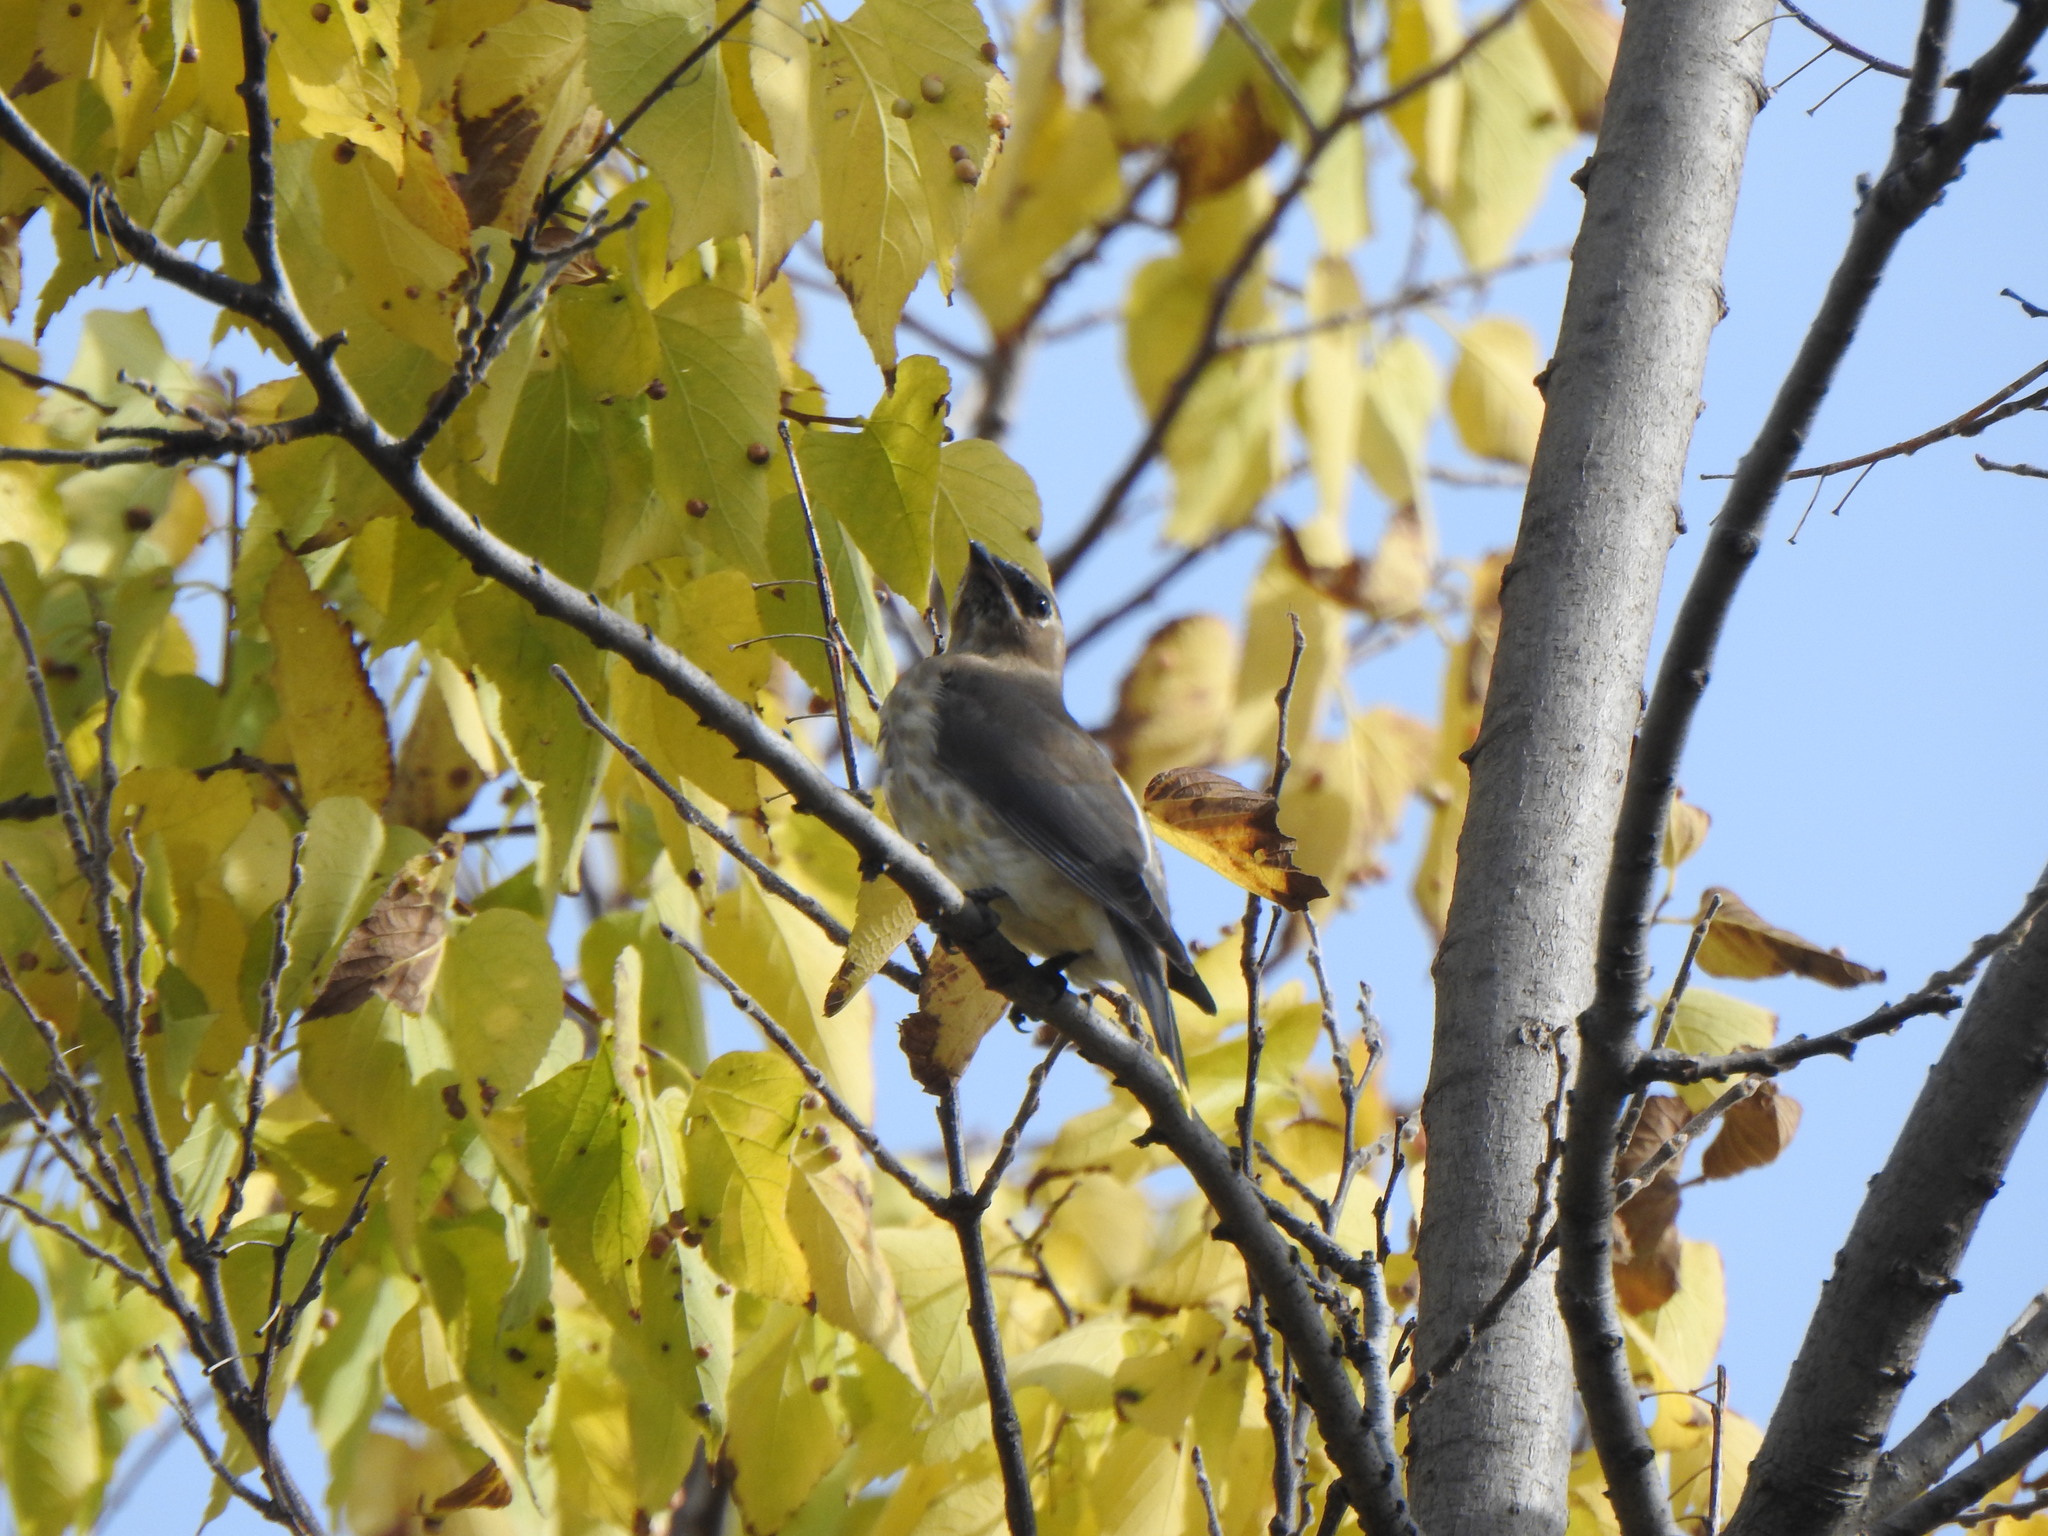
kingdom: Animalia
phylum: Chordata
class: Aves
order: Passeriformes
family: Bombycillidae
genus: Bombycilla
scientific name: Bombycilla cedrorum
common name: Cedar waxwing
